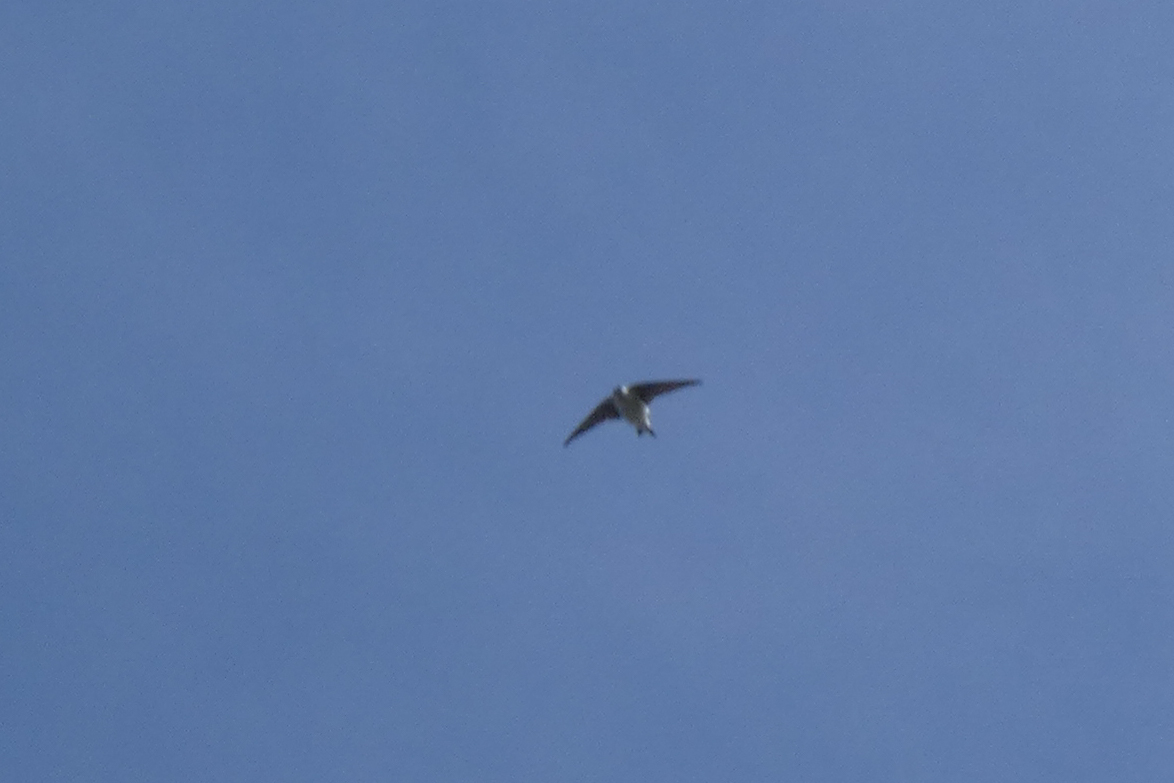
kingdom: Animalia
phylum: Chordata
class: Aves
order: Passeriformes
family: Hirundinidae
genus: Tachycineta
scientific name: Tachycineta thalassina
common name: Violet-green swallow
